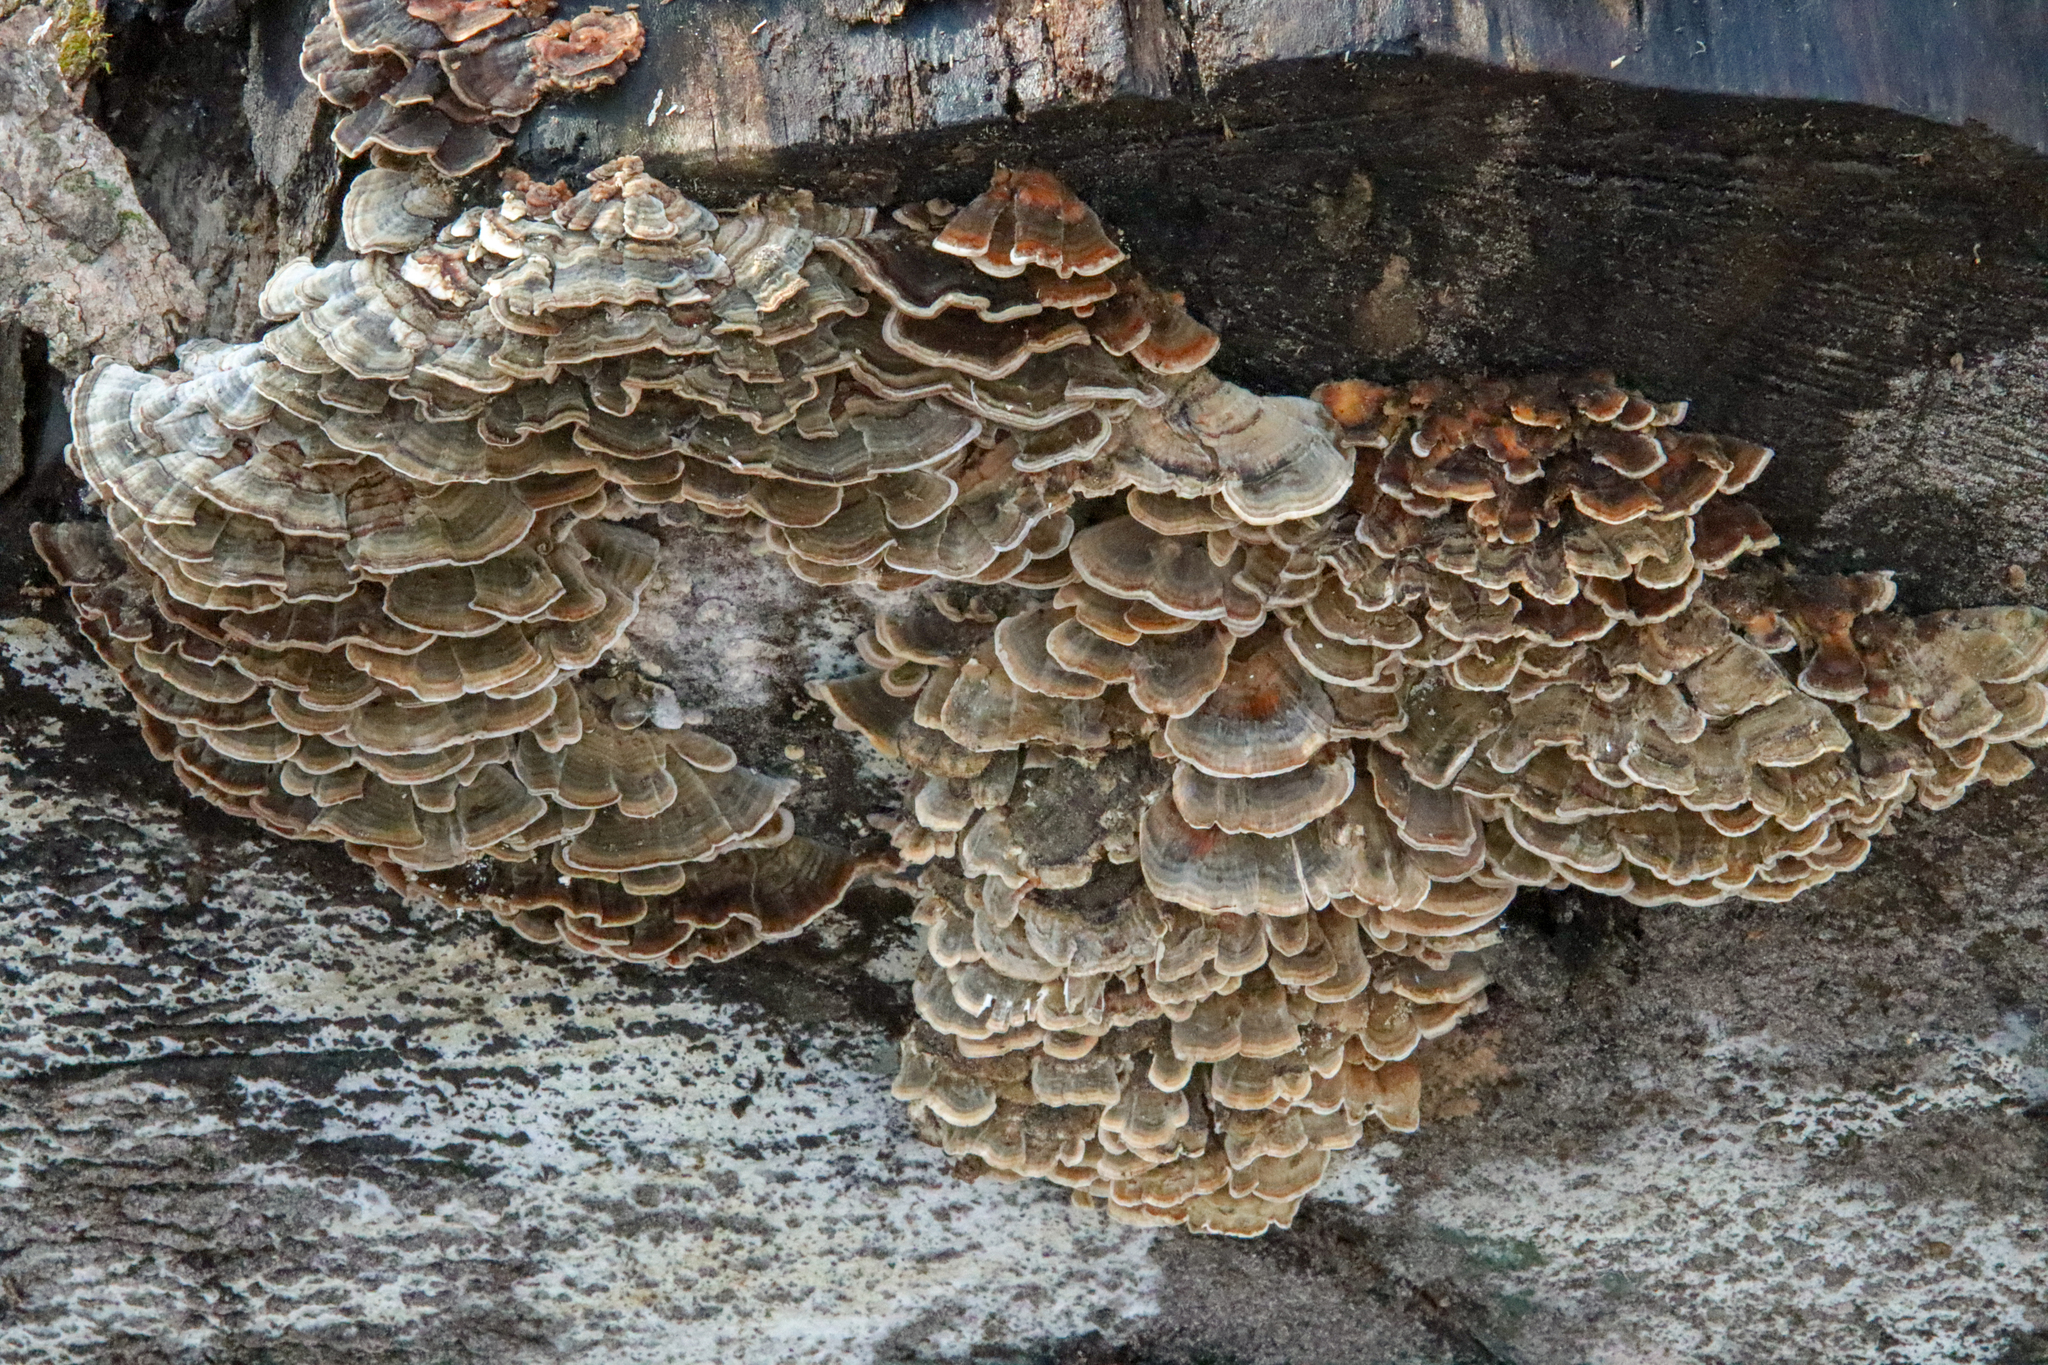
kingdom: Fungi
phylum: Basidiomycota
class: Agaricomycetes
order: Polyporales
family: Polyporaceae
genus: Trametes
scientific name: Trametes versicolor
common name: Turkeytail
